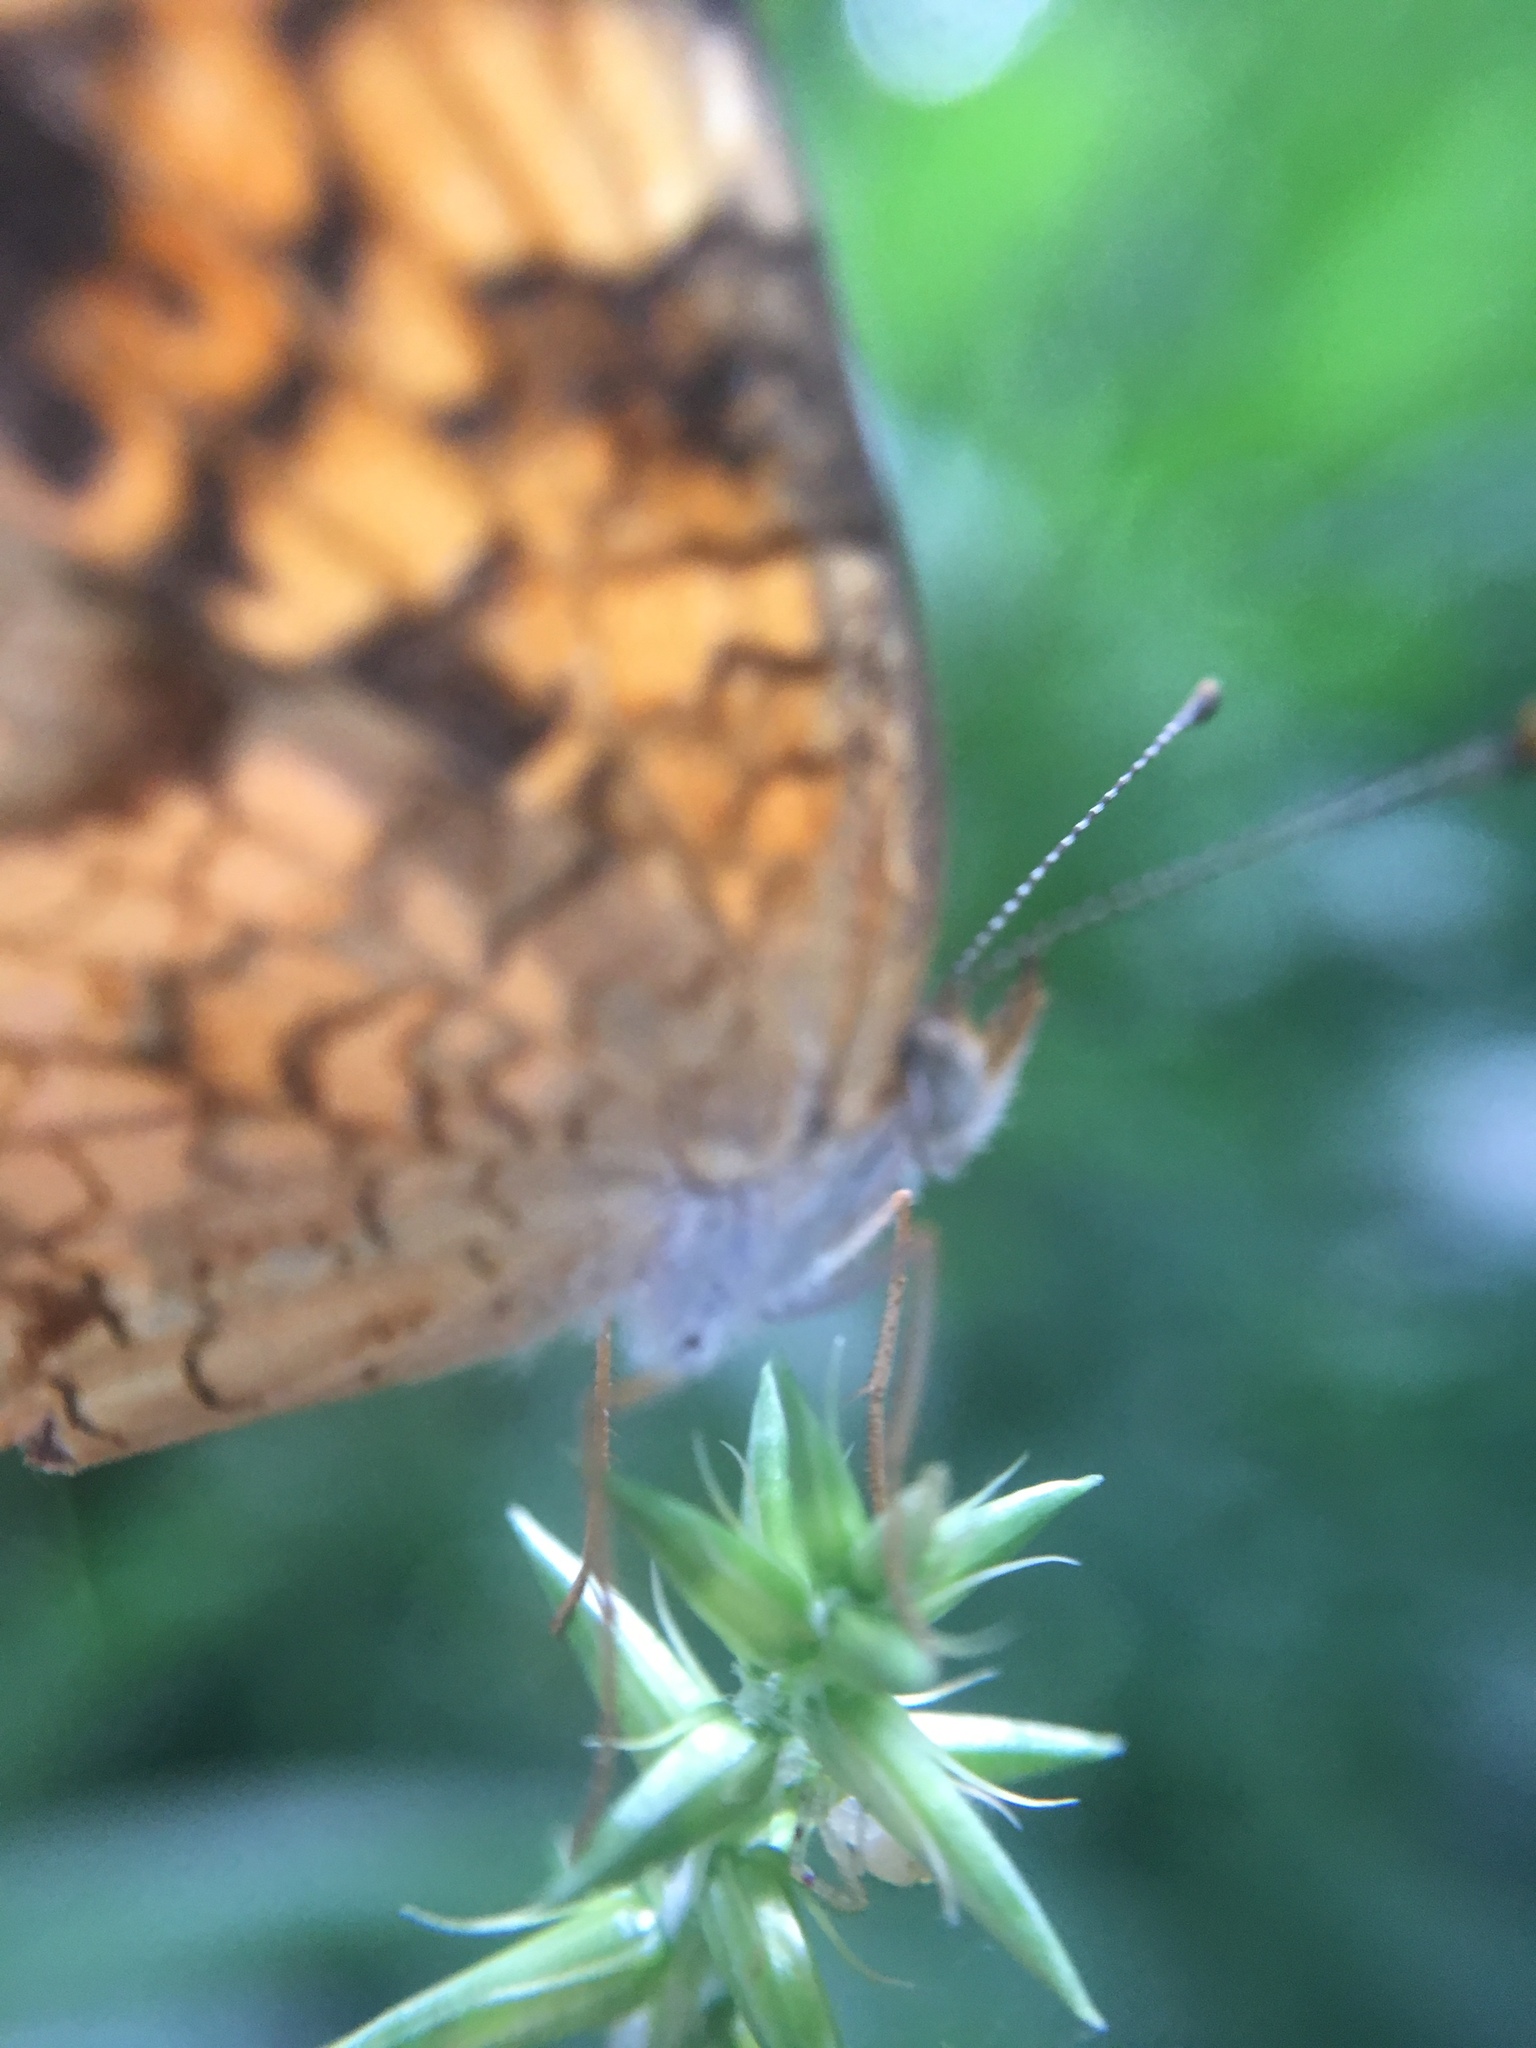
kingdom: Animalia
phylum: Arthropoda
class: Insecta
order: Lepidoptera
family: Nymphalidae
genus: Phyciodes
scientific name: Phyciodes tharos
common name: Pearl crescent
